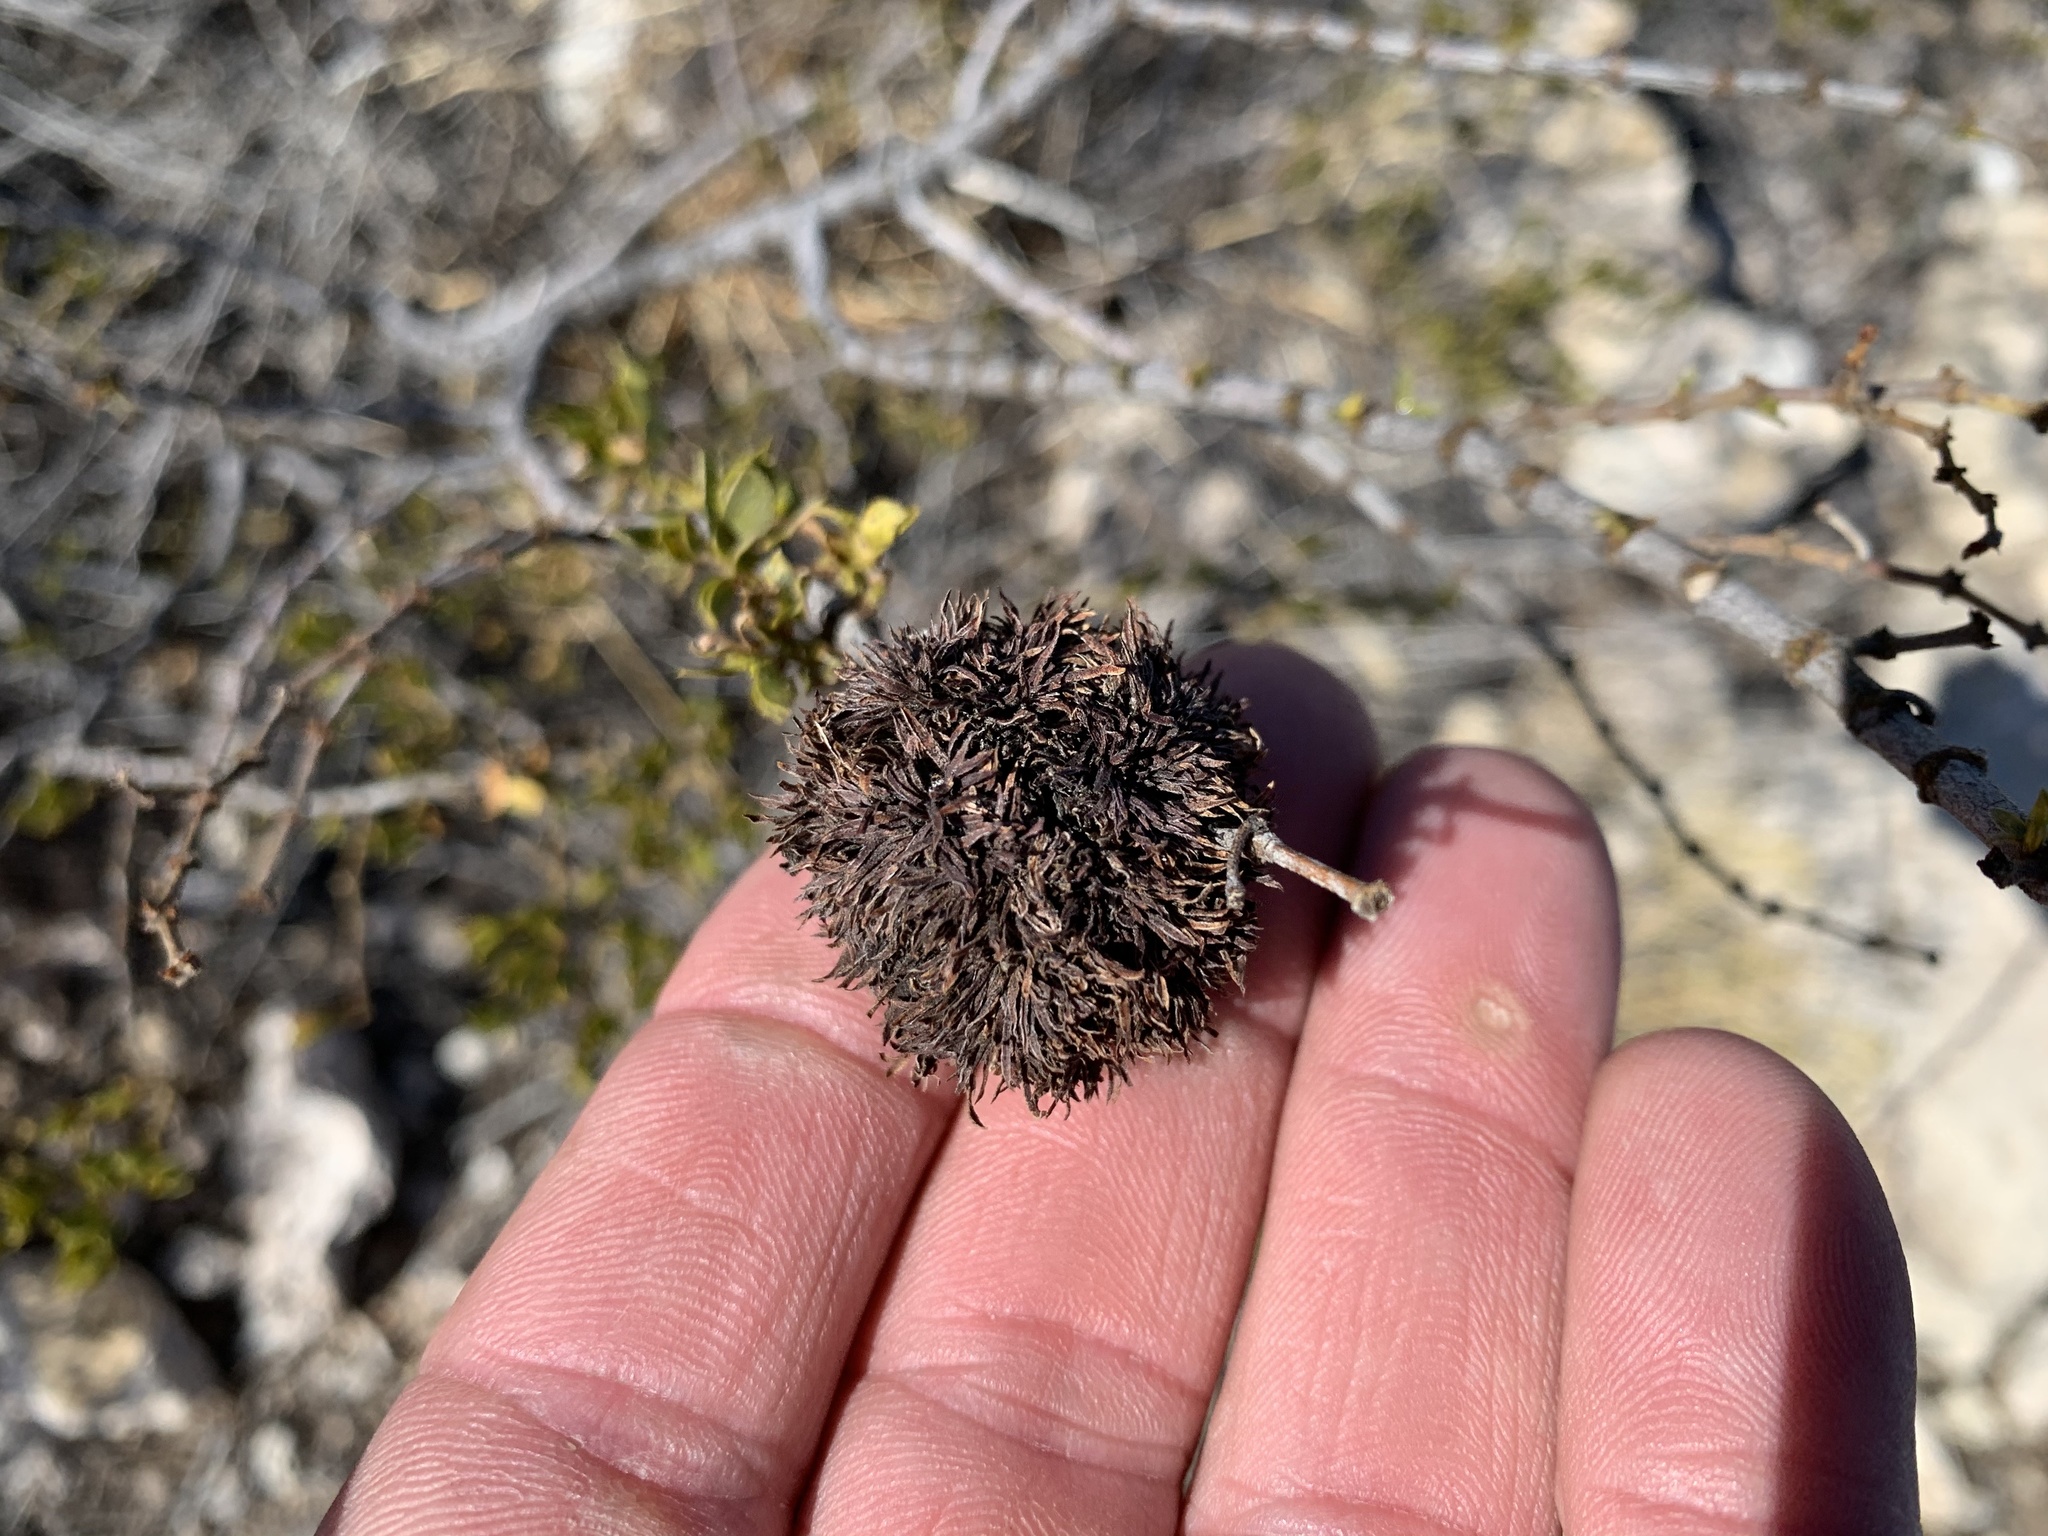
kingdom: Animalia
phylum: Arthropoda
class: Insecta
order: Diptera
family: Cecidomyiidae
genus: Asphondylia
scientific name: Asphondylia auripila
